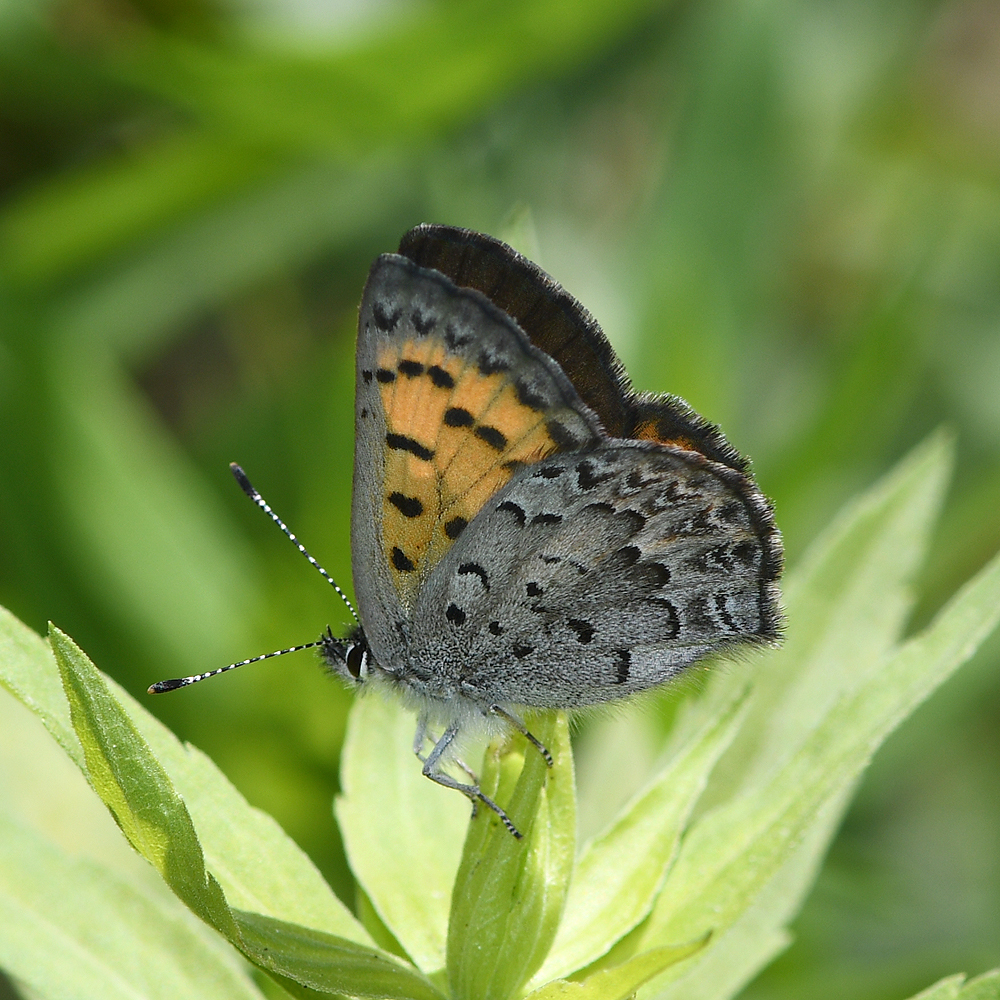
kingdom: Animalia
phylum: Arthropoda
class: Insecta
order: Lepidoptera
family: Lycaenidae
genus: Tharsalea
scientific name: Tharsalea mariposa
